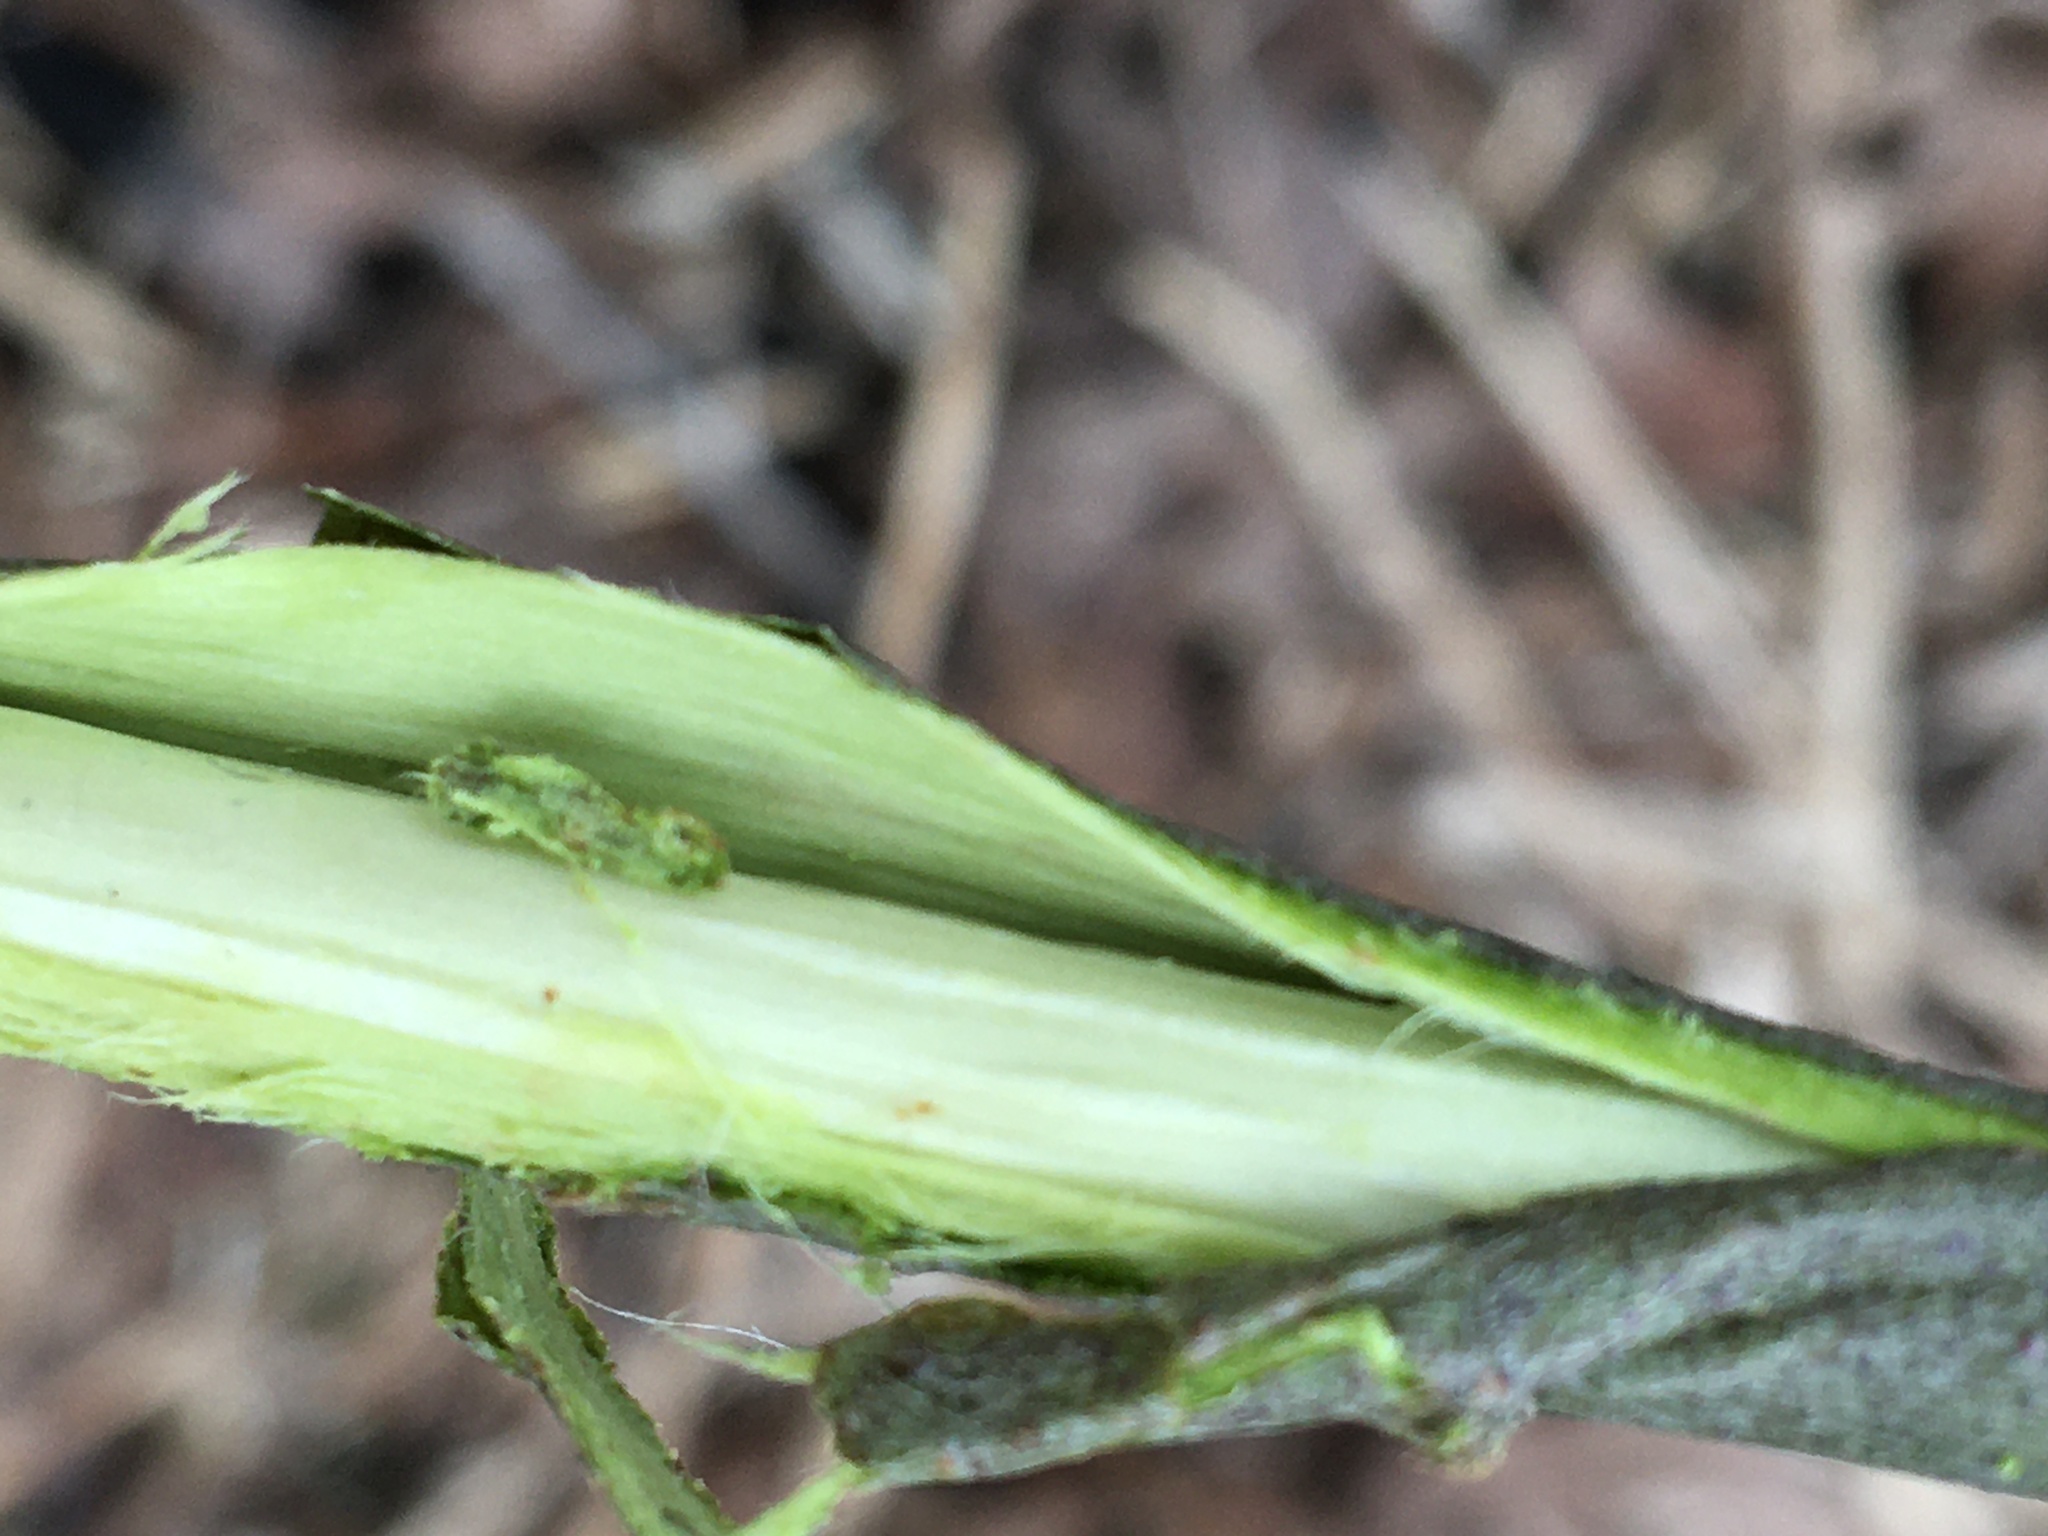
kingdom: Plantae
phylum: Tracheophyta
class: Magnoliopsida
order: Malpighiales
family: Salicaceae
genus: Salix
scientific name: Salix cinerea
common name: Common sallow
